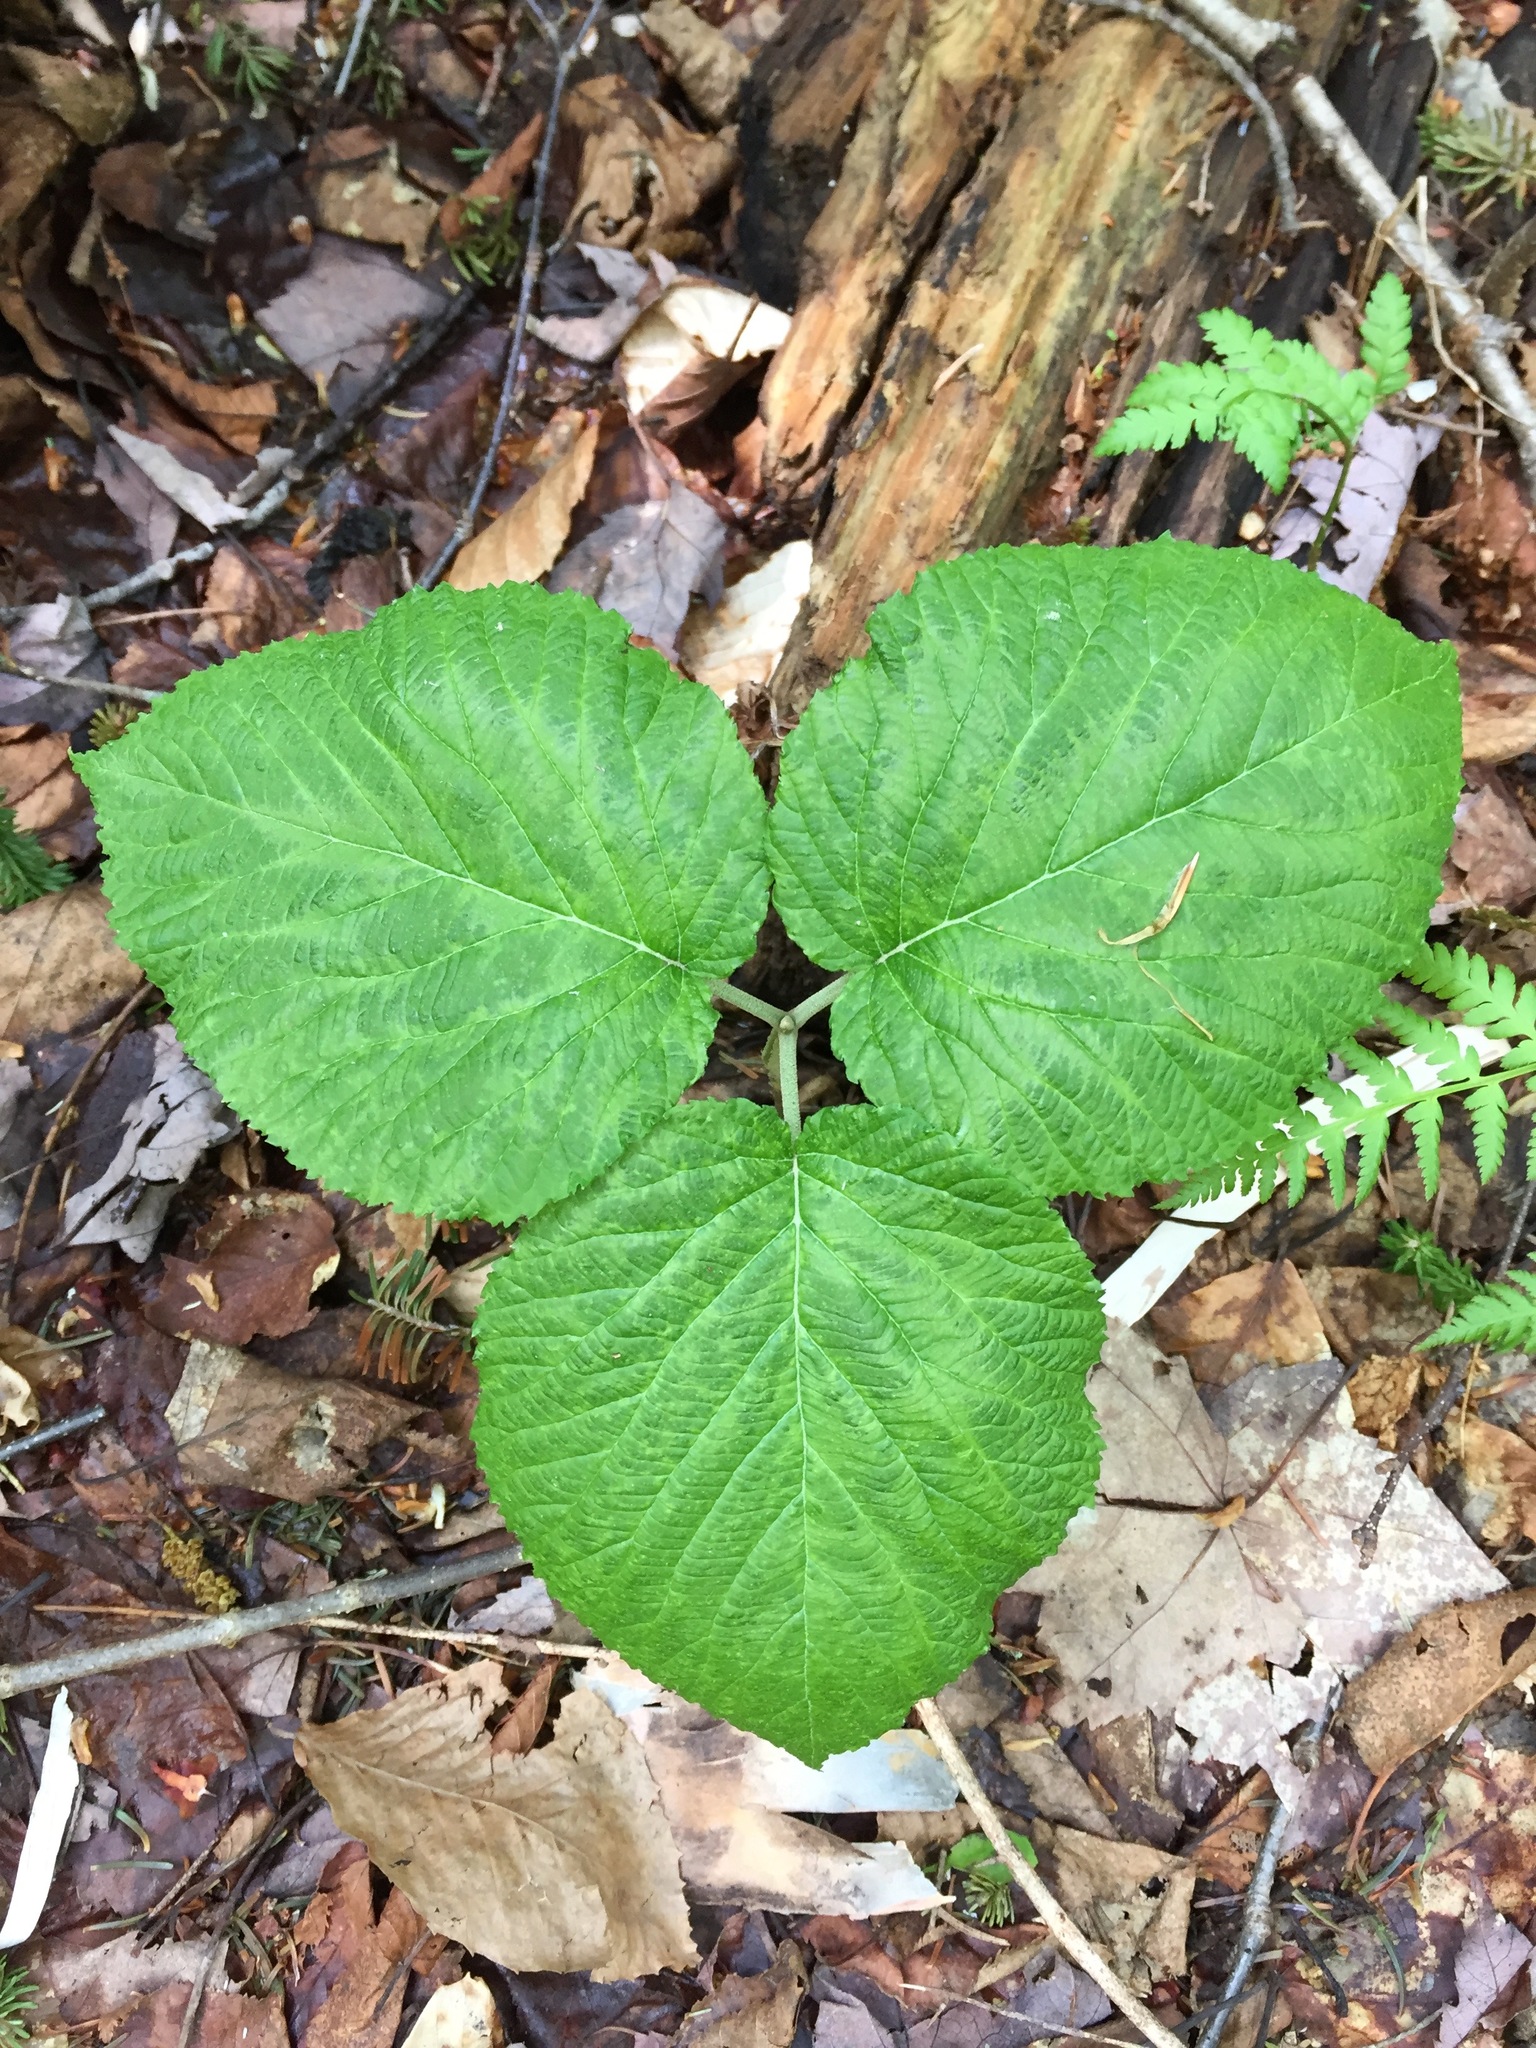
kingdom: Plantae
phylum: Tracheophyta
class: Magnoliopsida
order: Dipsacales
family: Viburnaceae
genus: Viburnum
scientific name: Viburnum lantanoides
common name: Hobblebush
